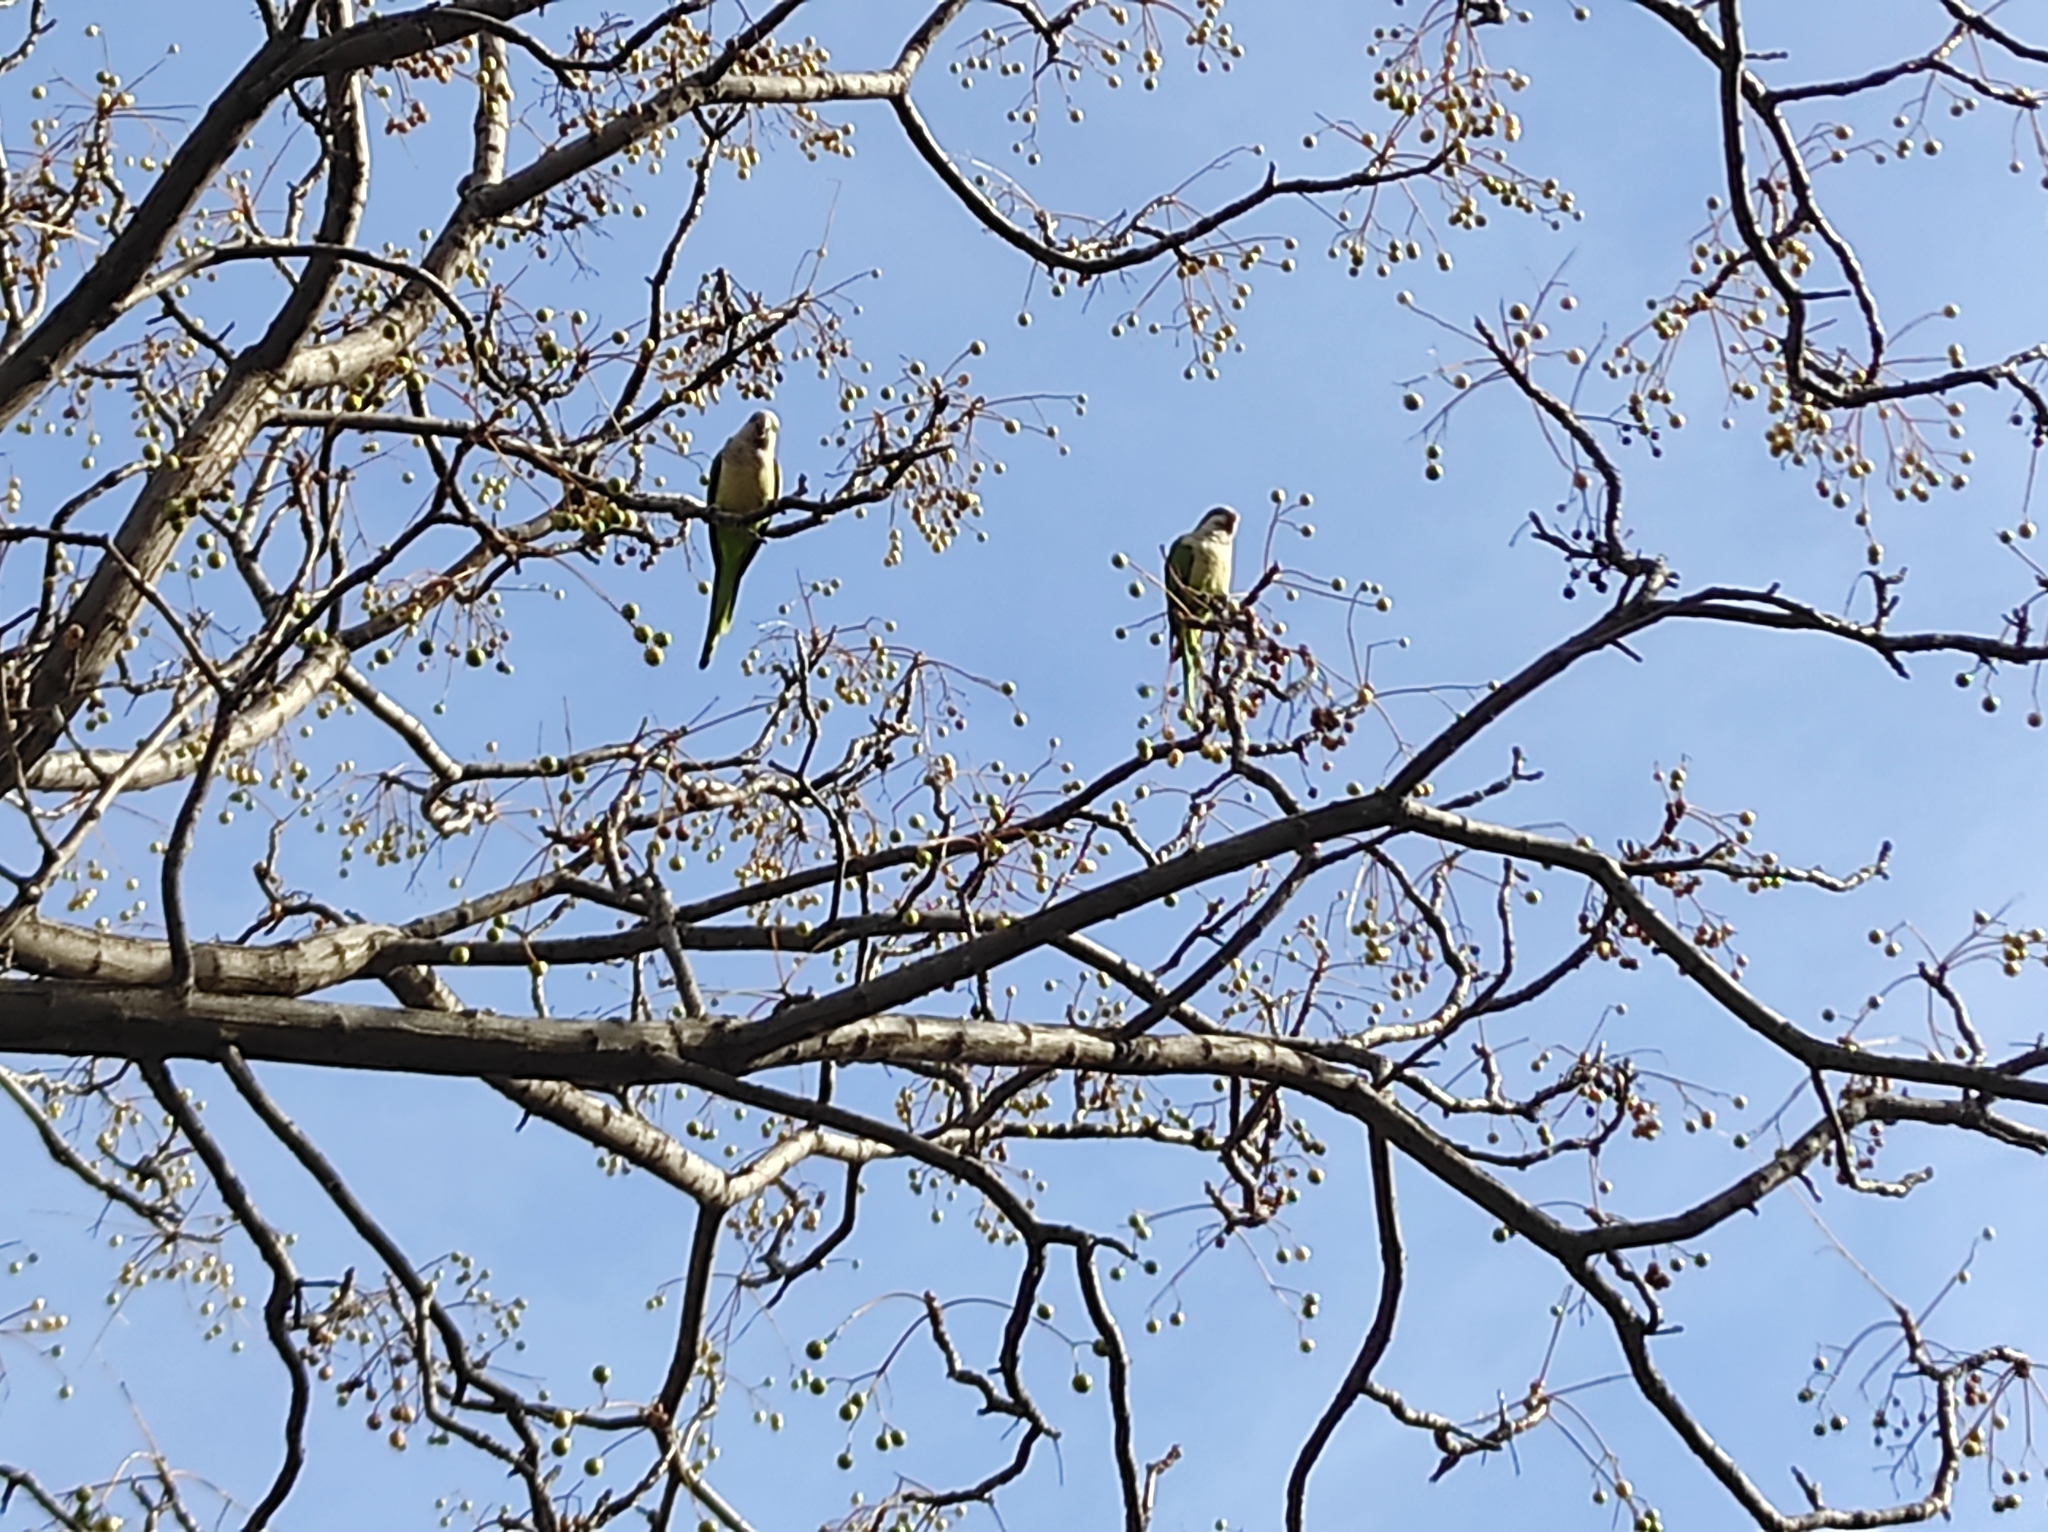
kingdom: Animalia
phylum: Chordata
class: Aves
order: Psittaciformes
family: Psittacidae
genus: Myiopsitta
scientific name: Myiopsitta monachus
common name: Monk parakeet
